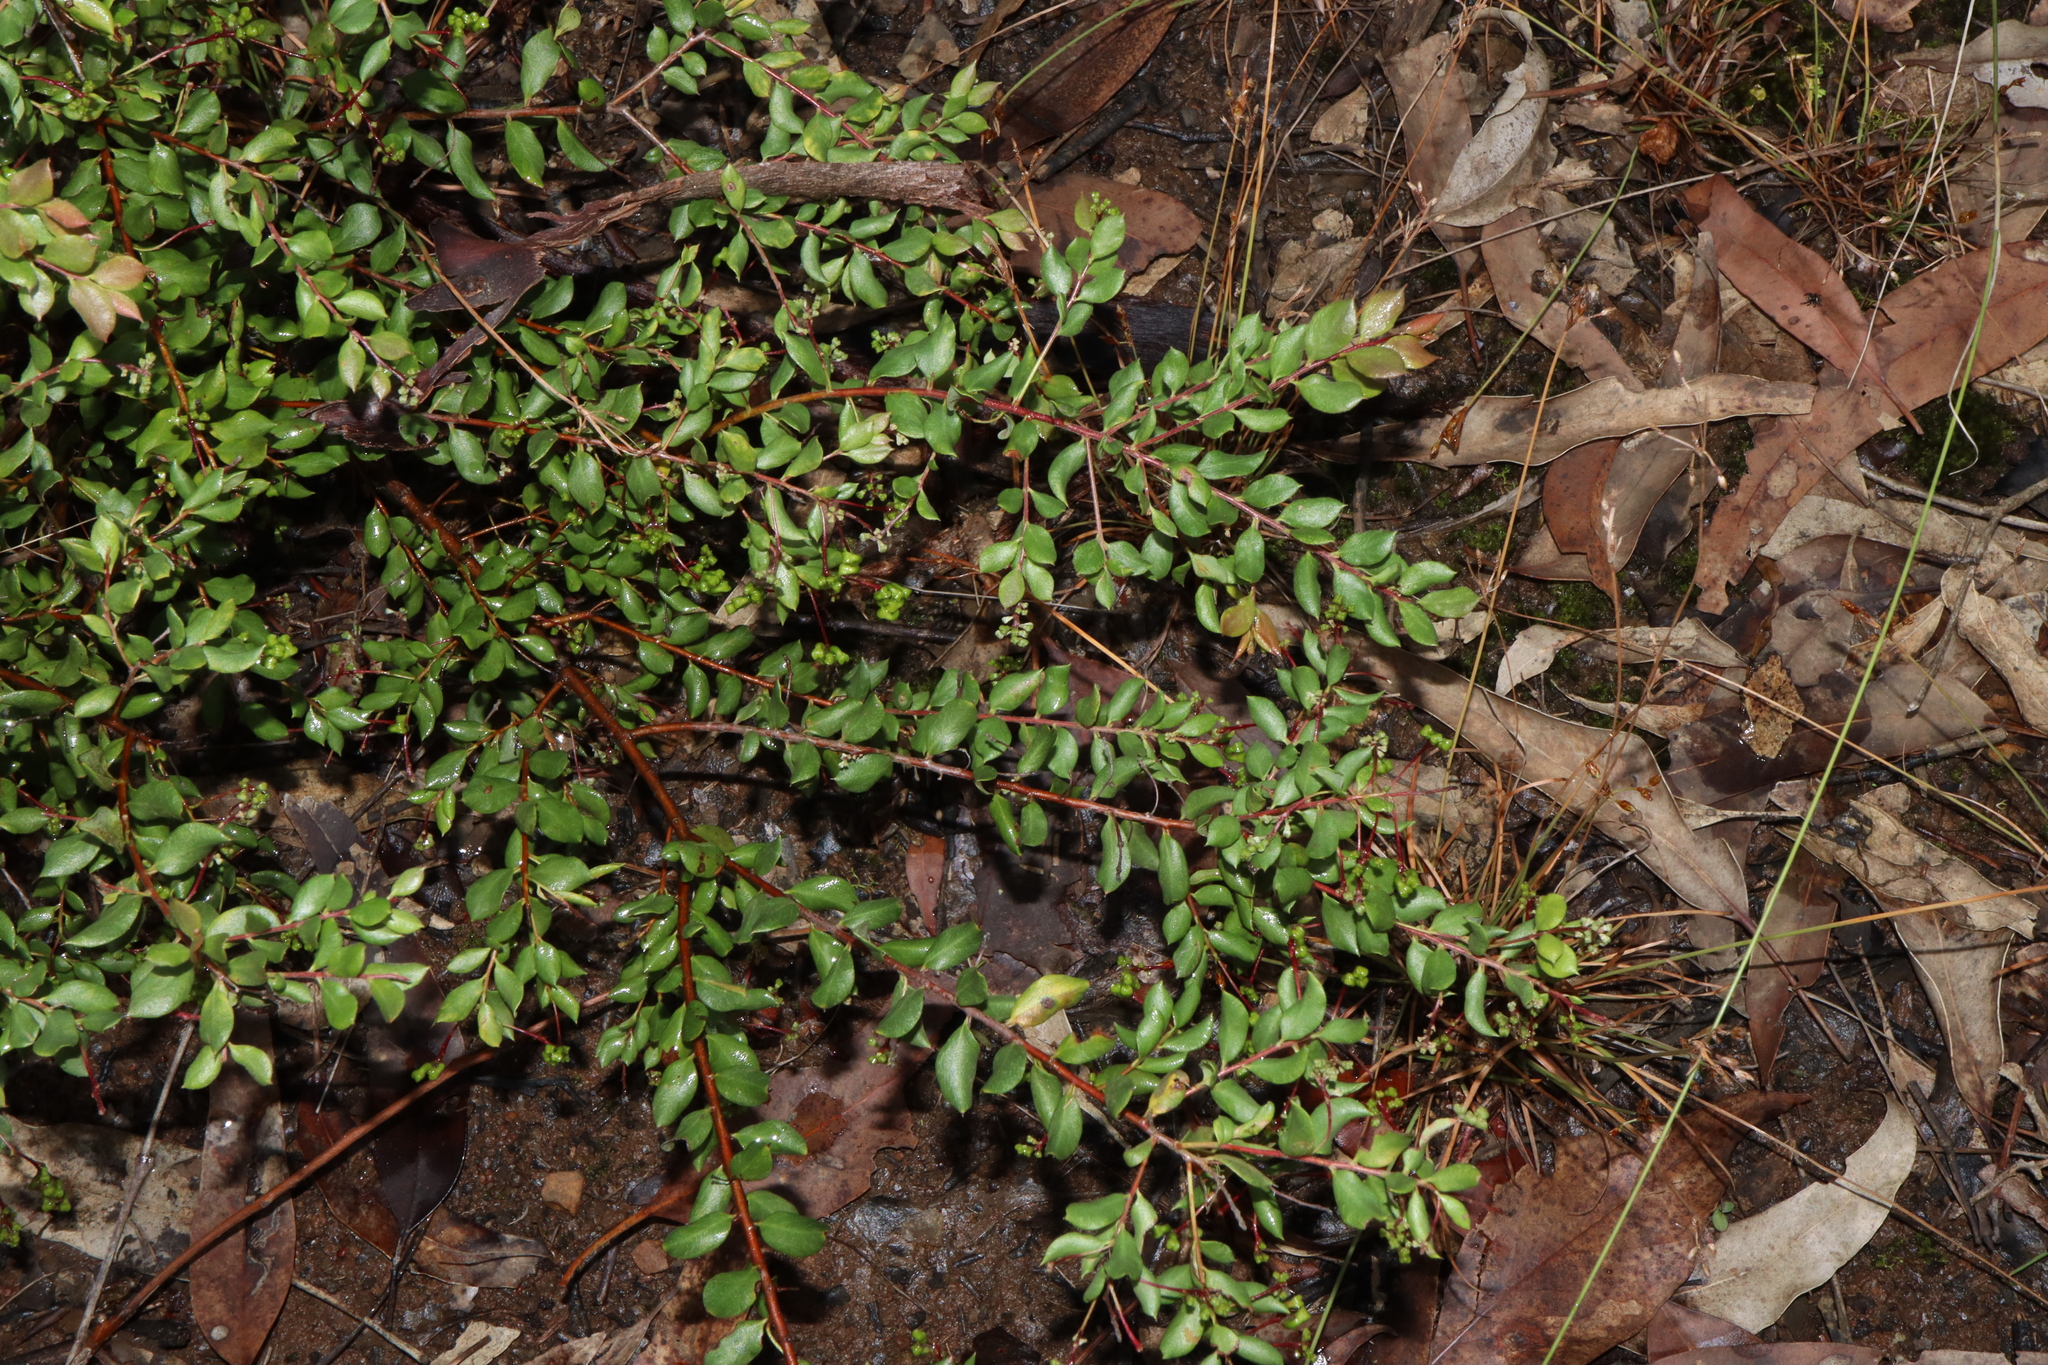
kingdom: Plantae
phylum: Tracheophyta
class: Magnoliopsida
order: Proteales
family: Proteaceae
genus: Grevillea
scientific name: Grevillea mucronulata
